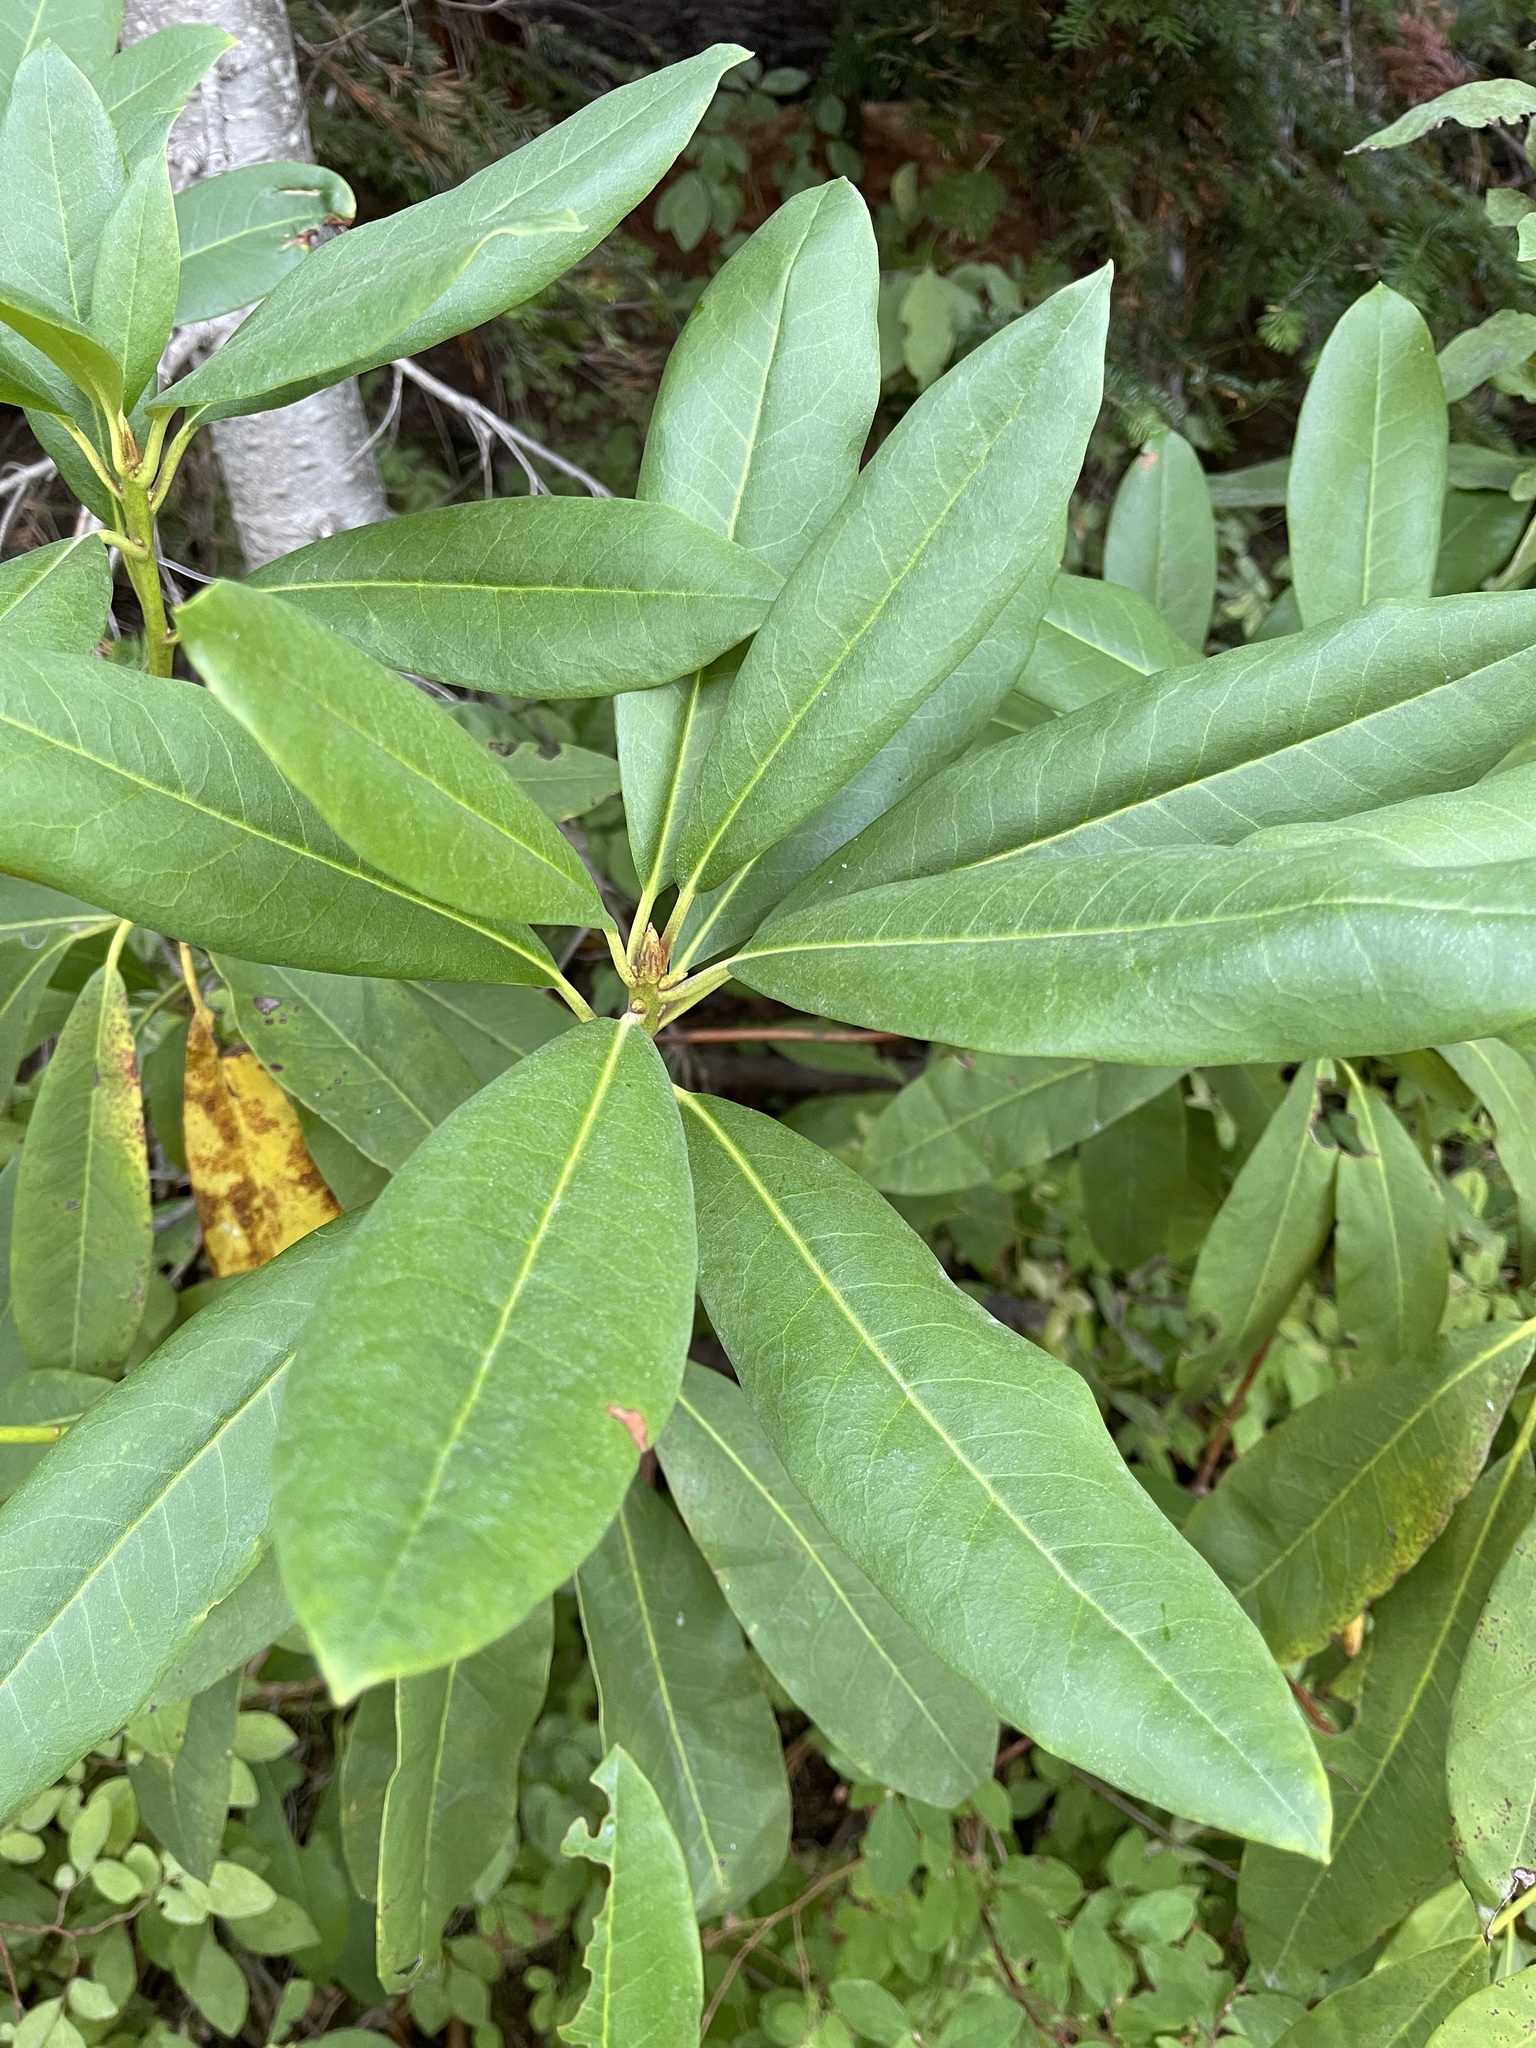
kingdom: Plantae
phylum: Tracheophyta
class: Magnoliopsida
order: Ericales
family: Ericaceae
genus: Rhododendron
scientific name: Rhododendron macrophyllum
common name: California rose bay
